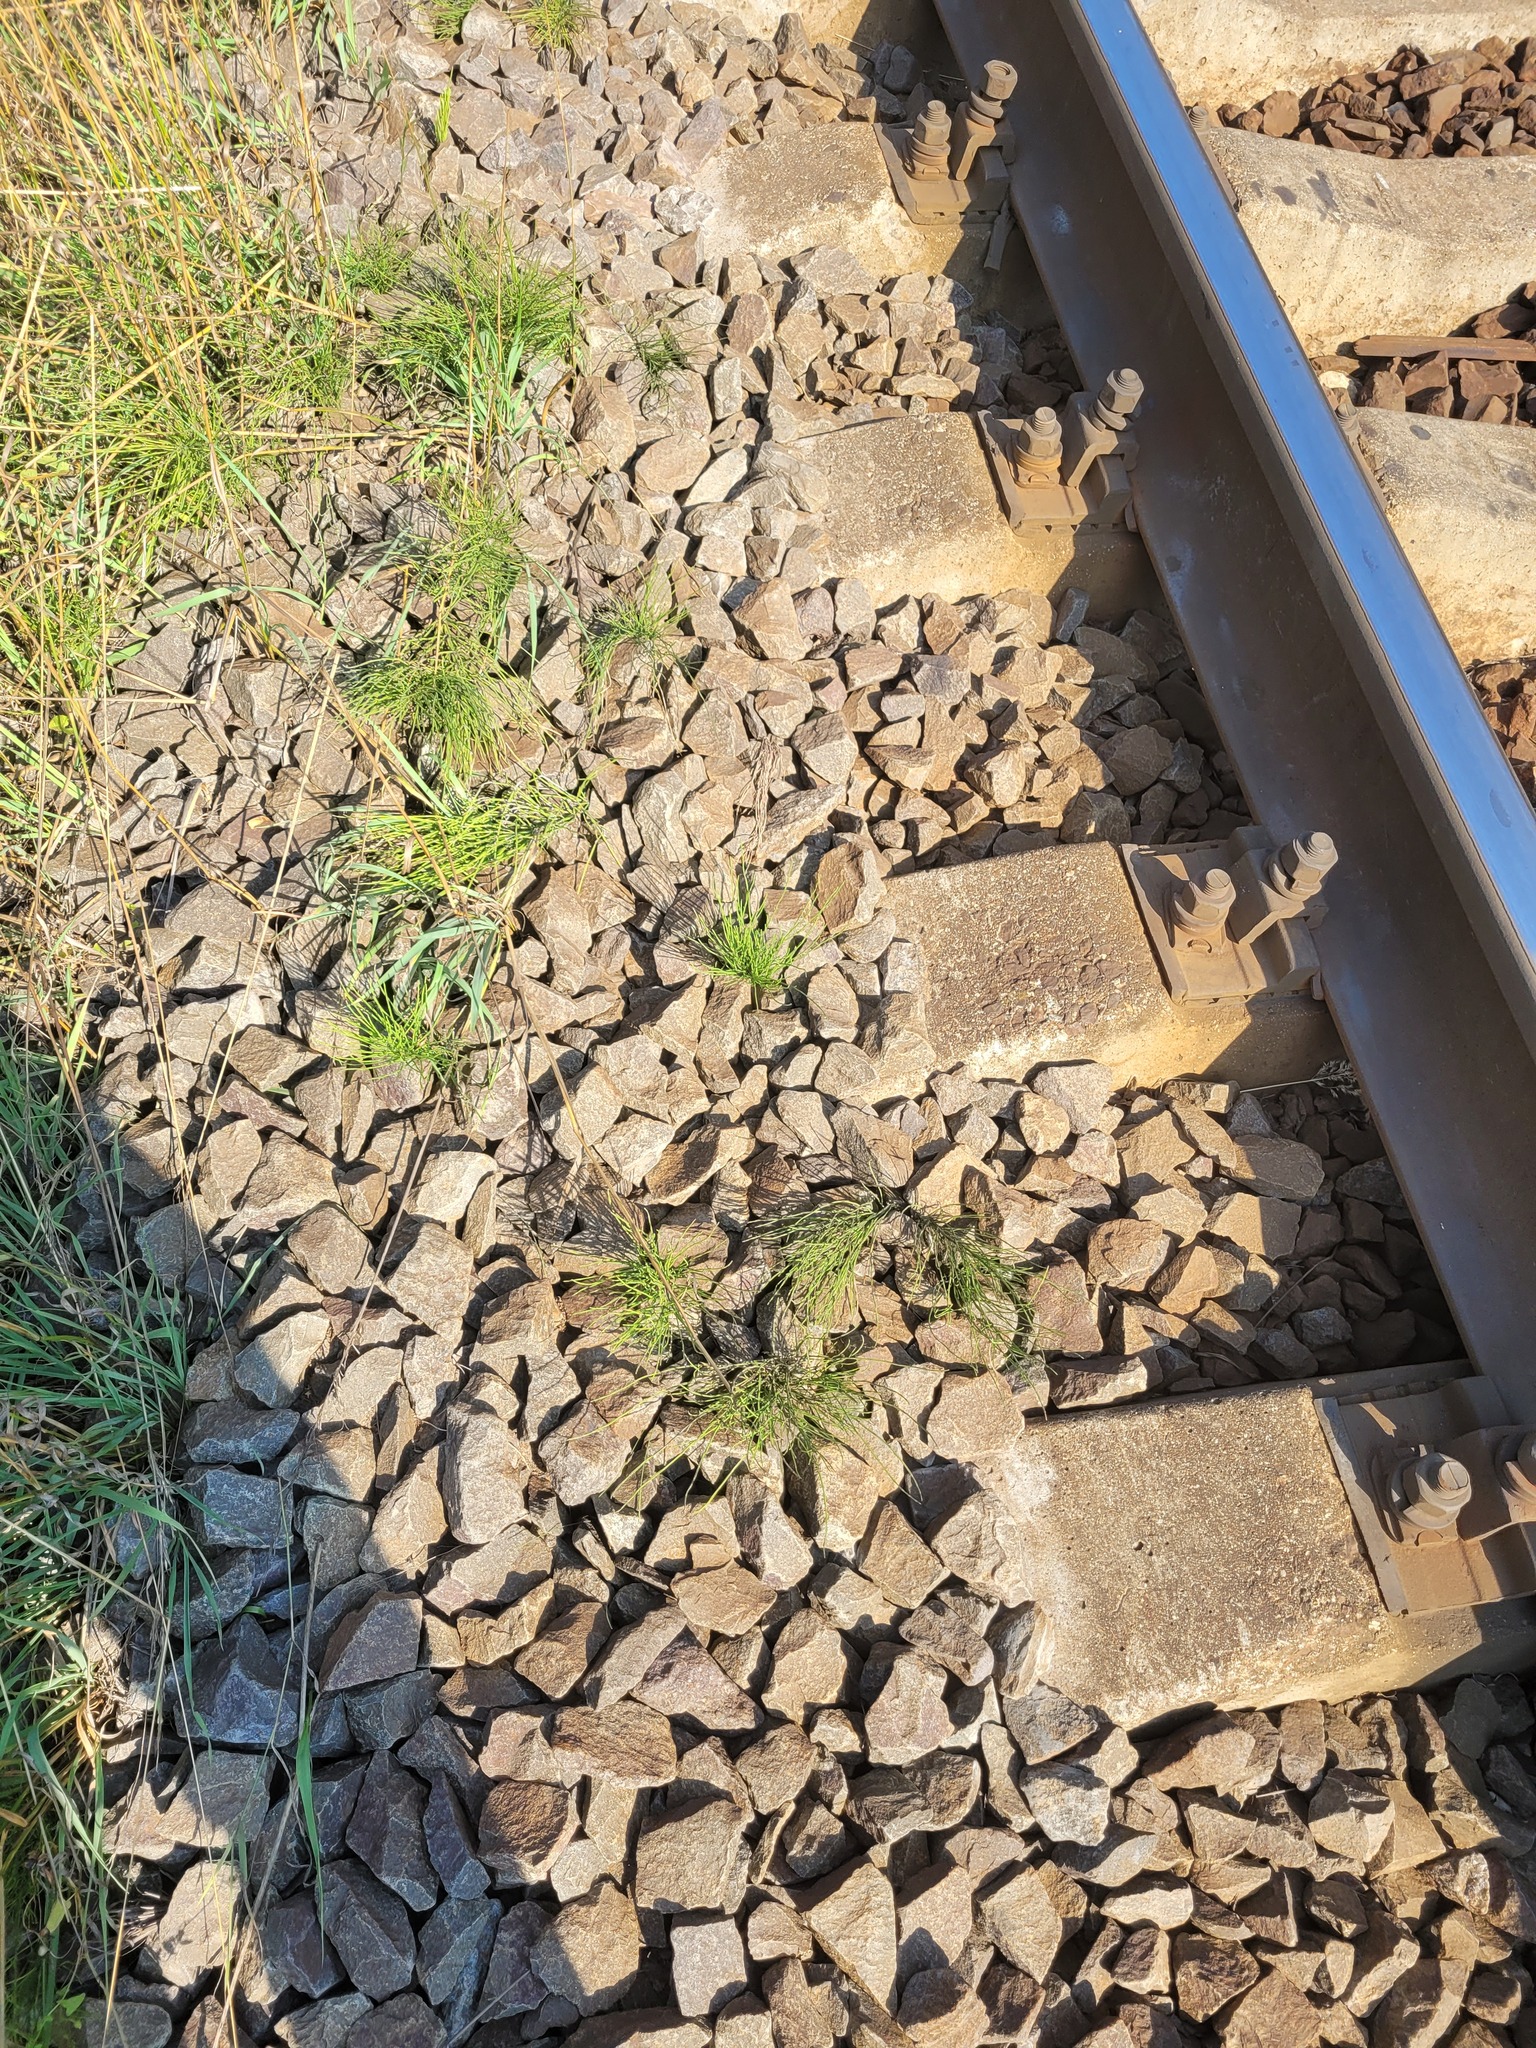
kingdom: Plantae
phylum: Tracheophyta
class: Polypodiopsida
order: Equisetales
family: Equisetaceae
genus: Equisetum
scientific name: Equisetum arvense
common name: Field horsetail
